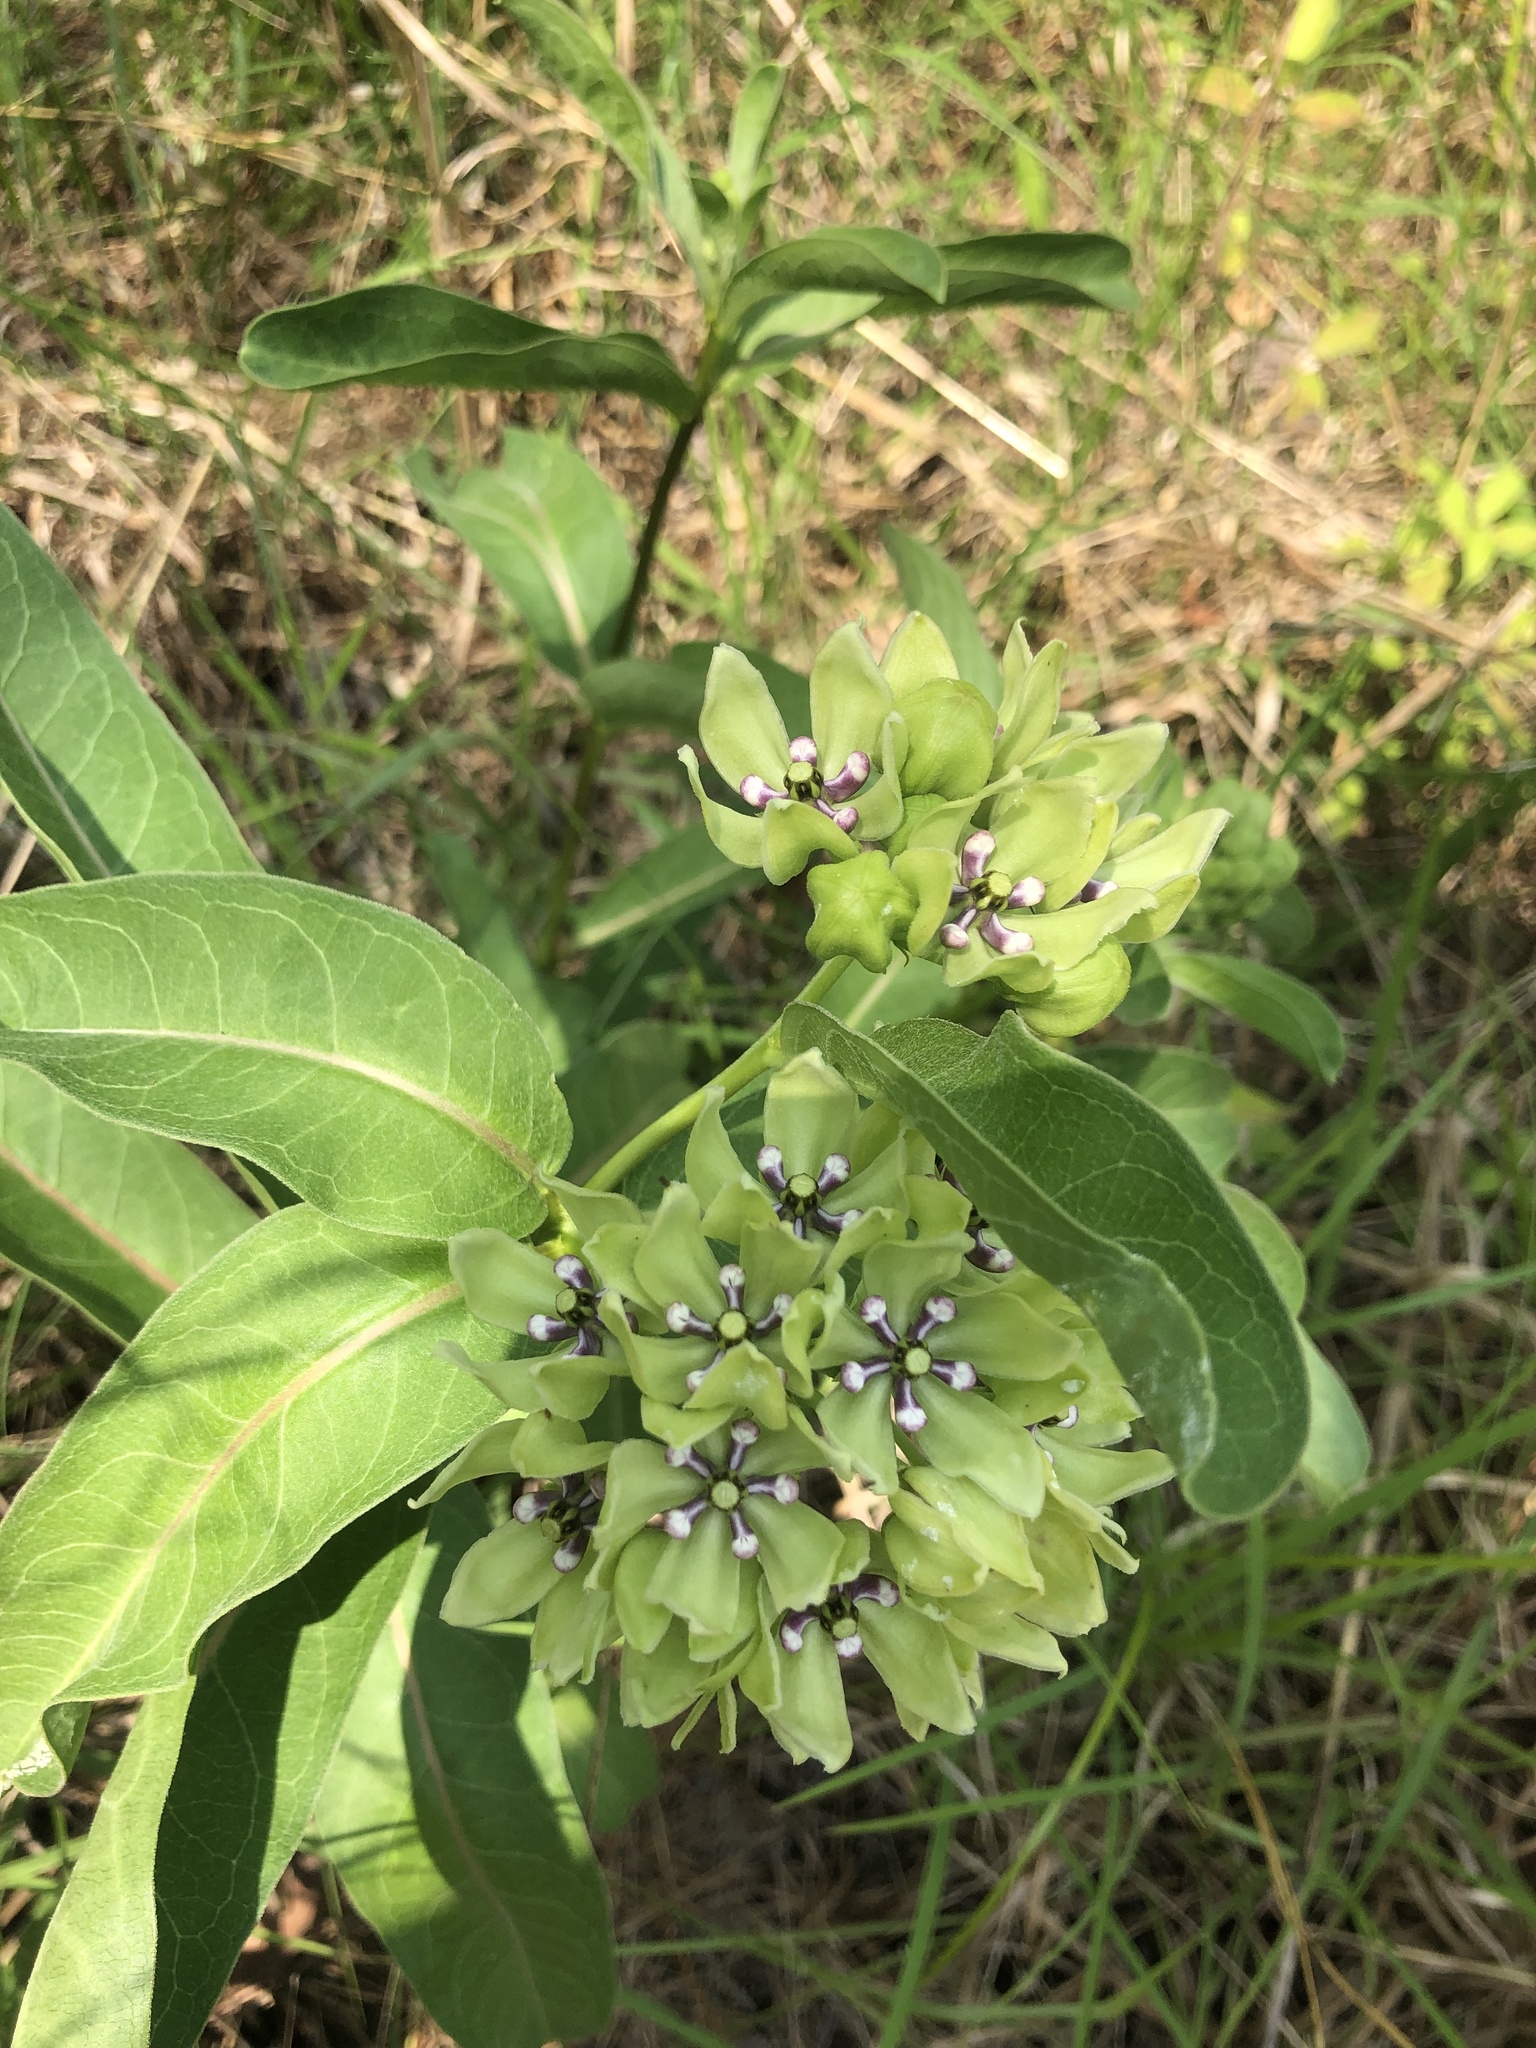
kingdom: Plantae
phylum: Tracheophyta
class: Magnoliopsida
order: Gentianales
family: Apocynaceae
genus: Asclepias
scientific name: Asclepias viridis
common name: Antelope-horns
